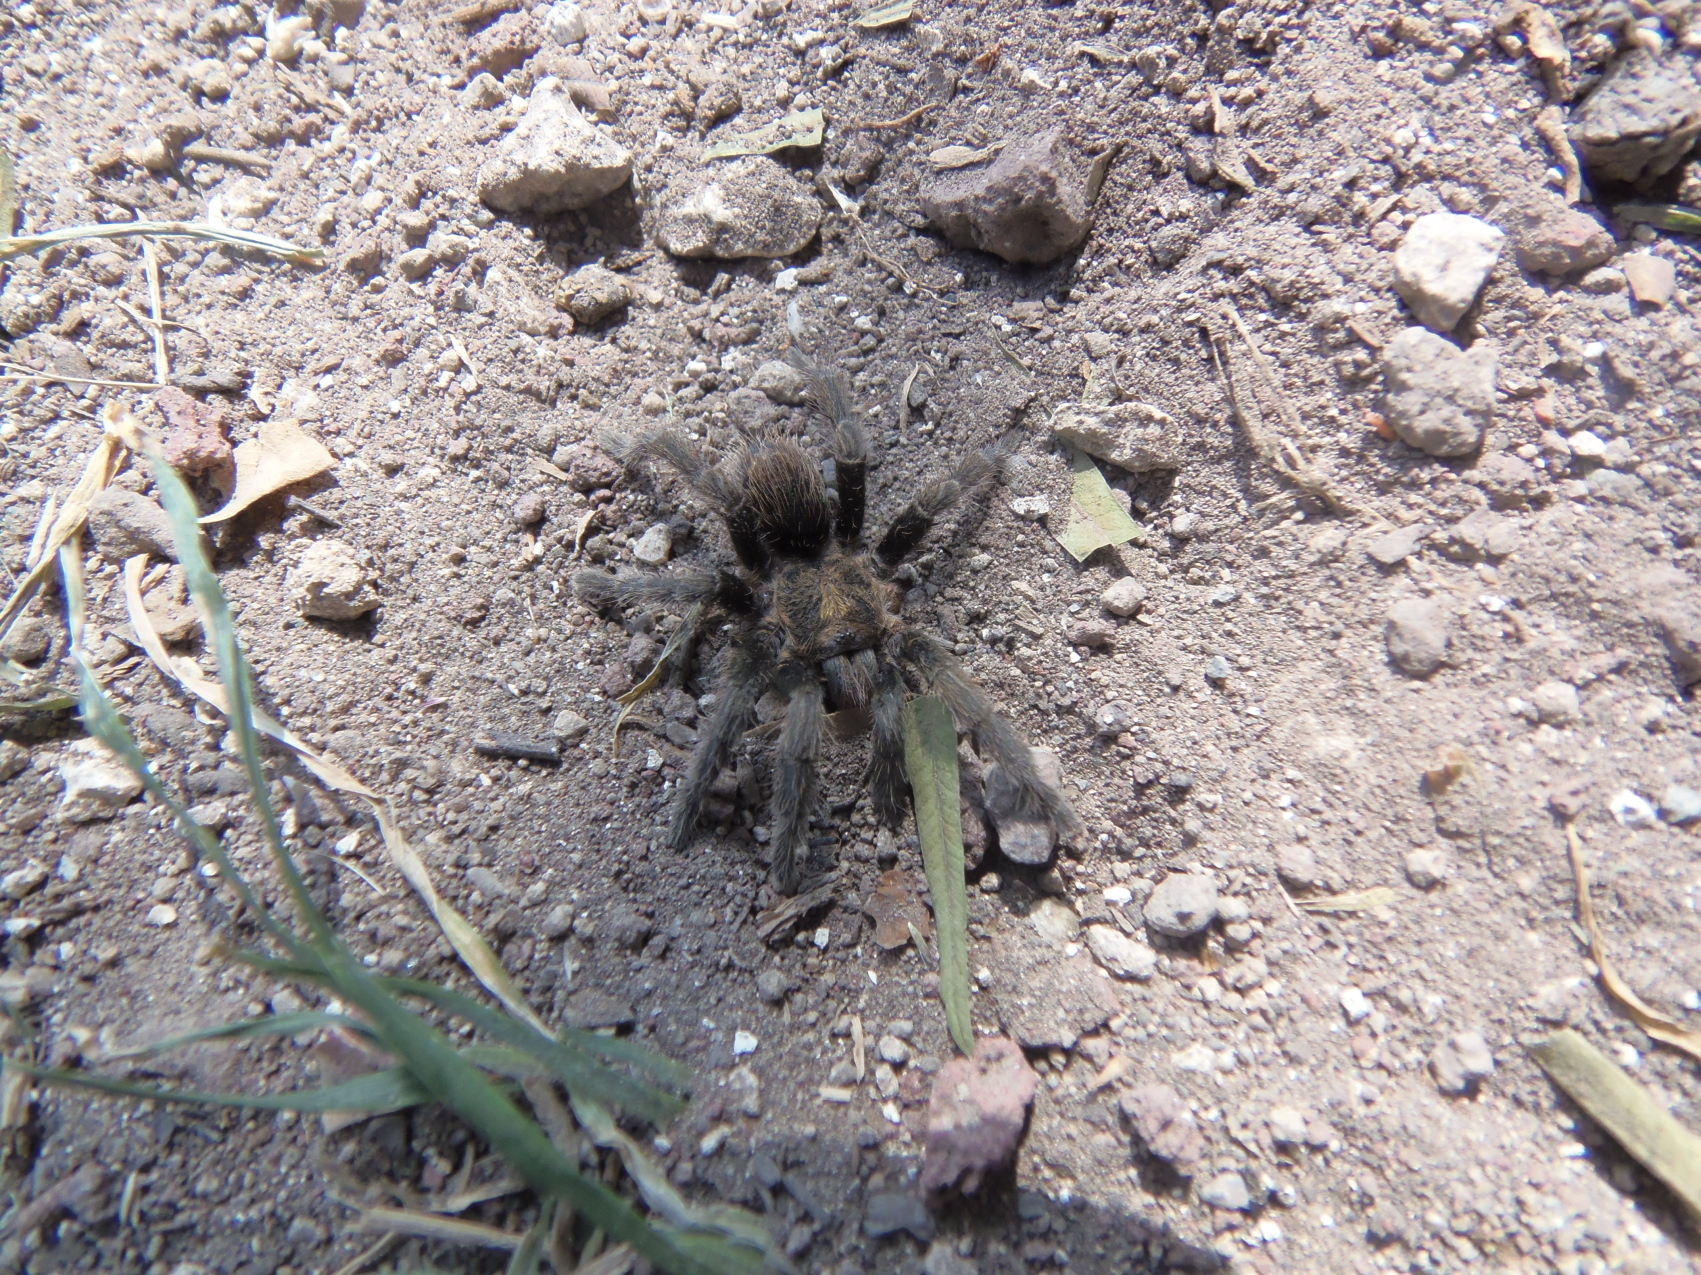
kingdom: Animalia
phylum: Arthropoda
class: Arachnida
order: Araneae
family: Theraphosidae
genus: Bonnetina
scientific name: Bonnetina aviae
